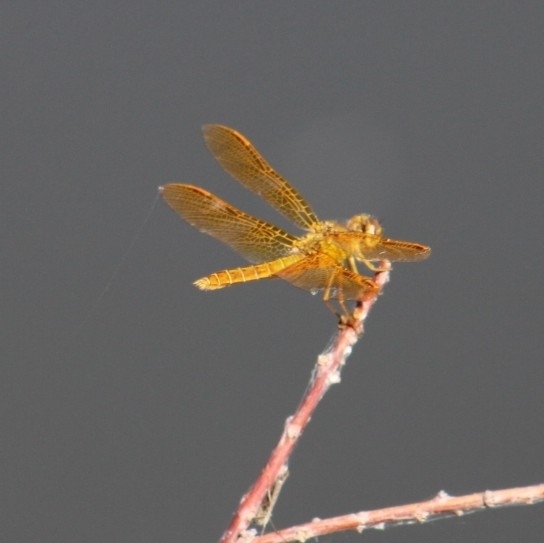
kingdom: Animalia
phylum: Arthropoda
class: Insecta
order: Odonata
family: Libellulidae
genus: Perithemis
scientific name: Perithemis intensa
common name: Mexican amberwing
